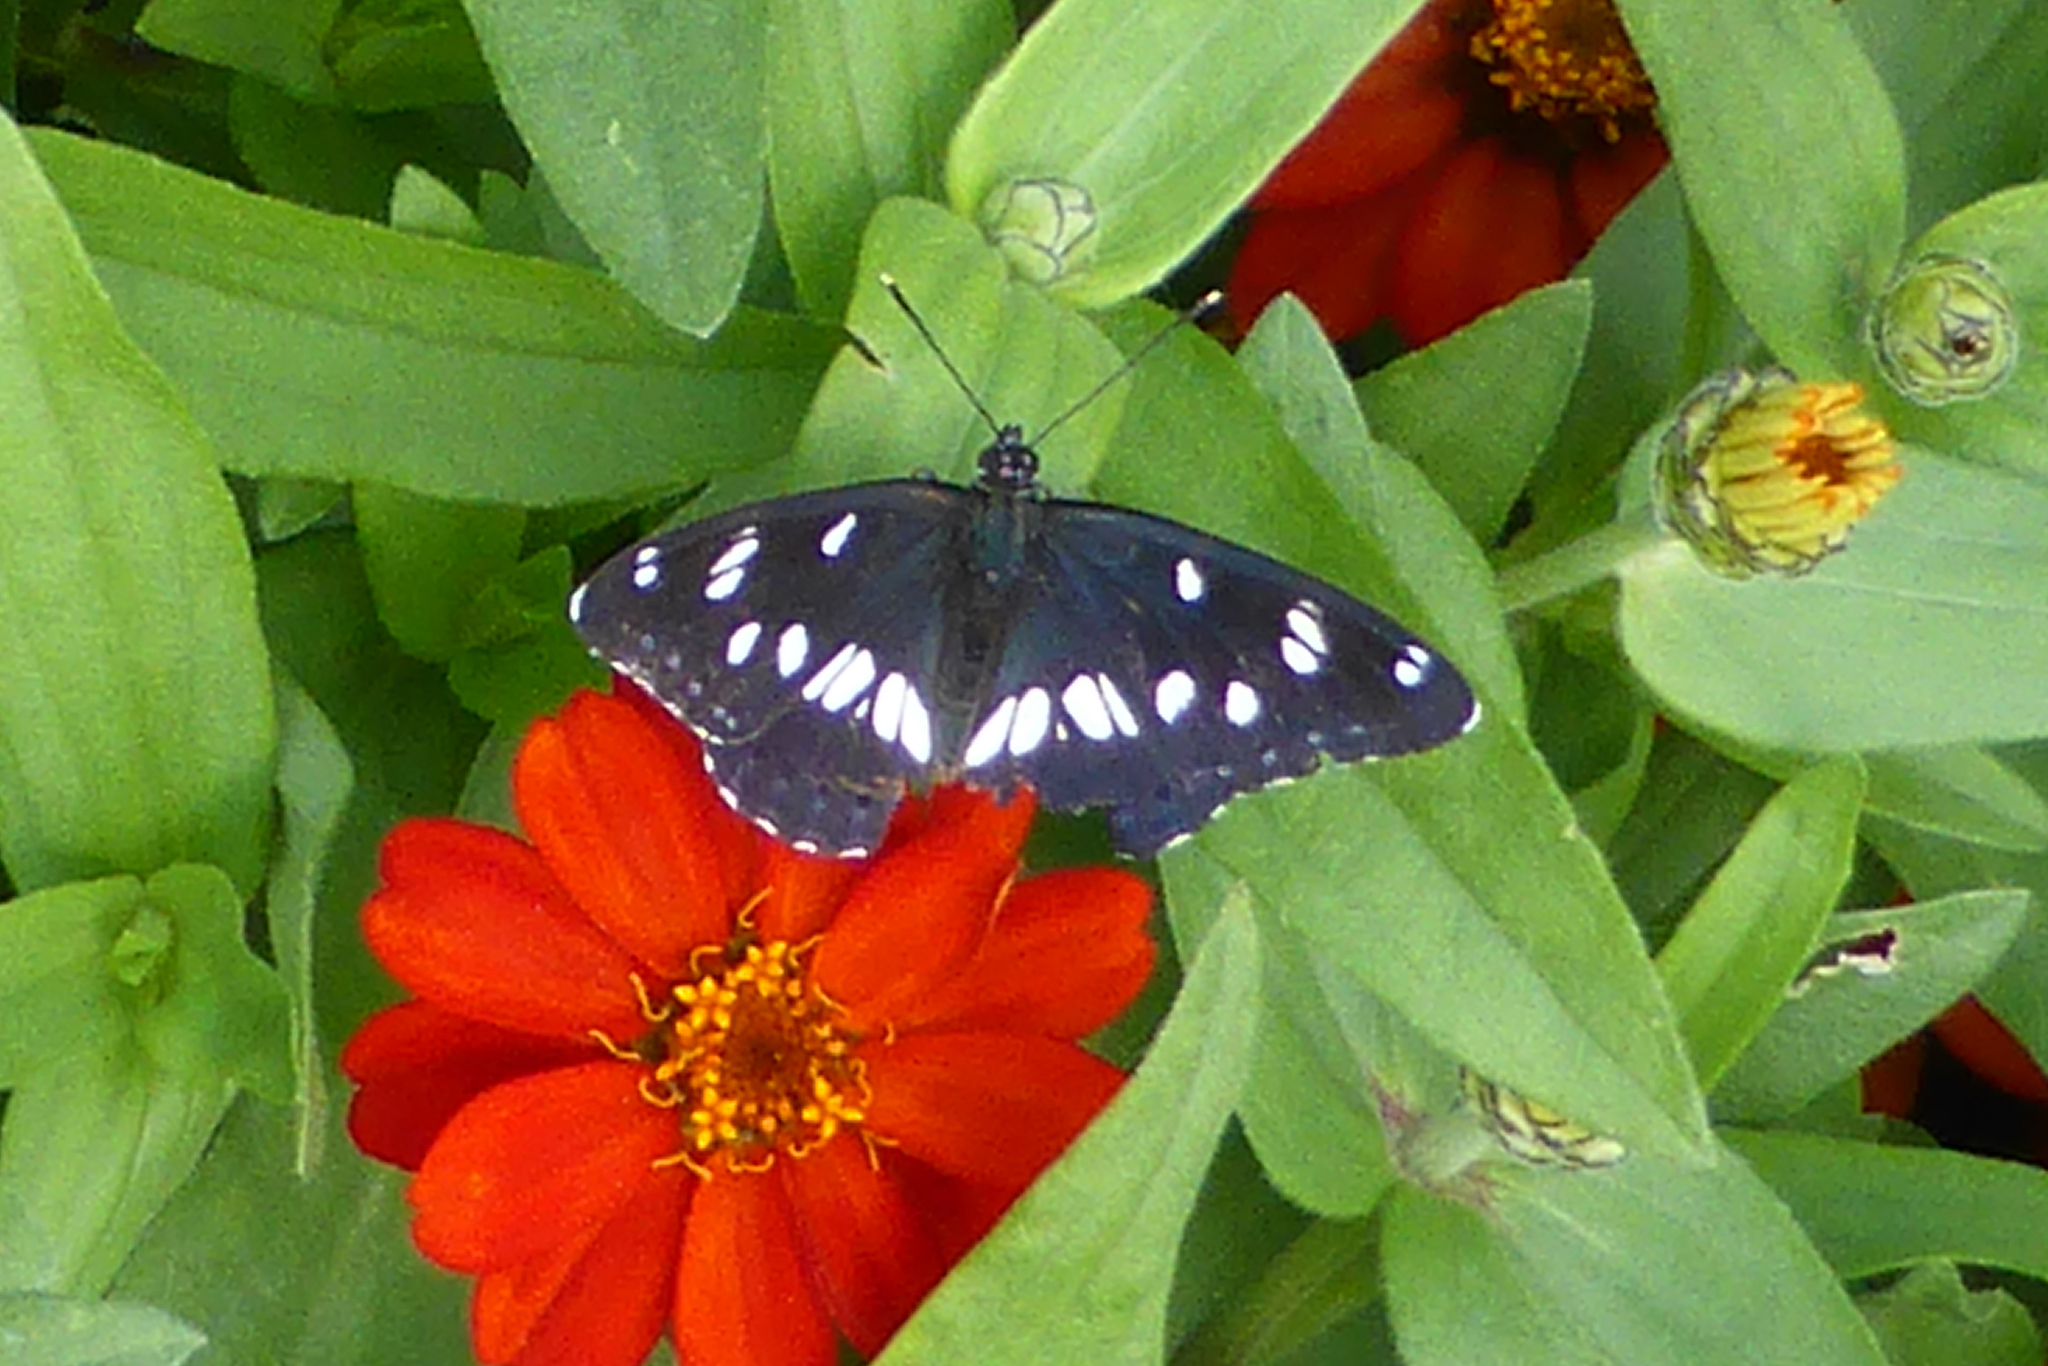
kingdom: Animalia
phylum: Arthropoda
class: Insecta
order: Lepidoptera
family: Nymphalidae
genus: Limenitis
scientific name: Limenitis reducta
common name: Southern white admiral
